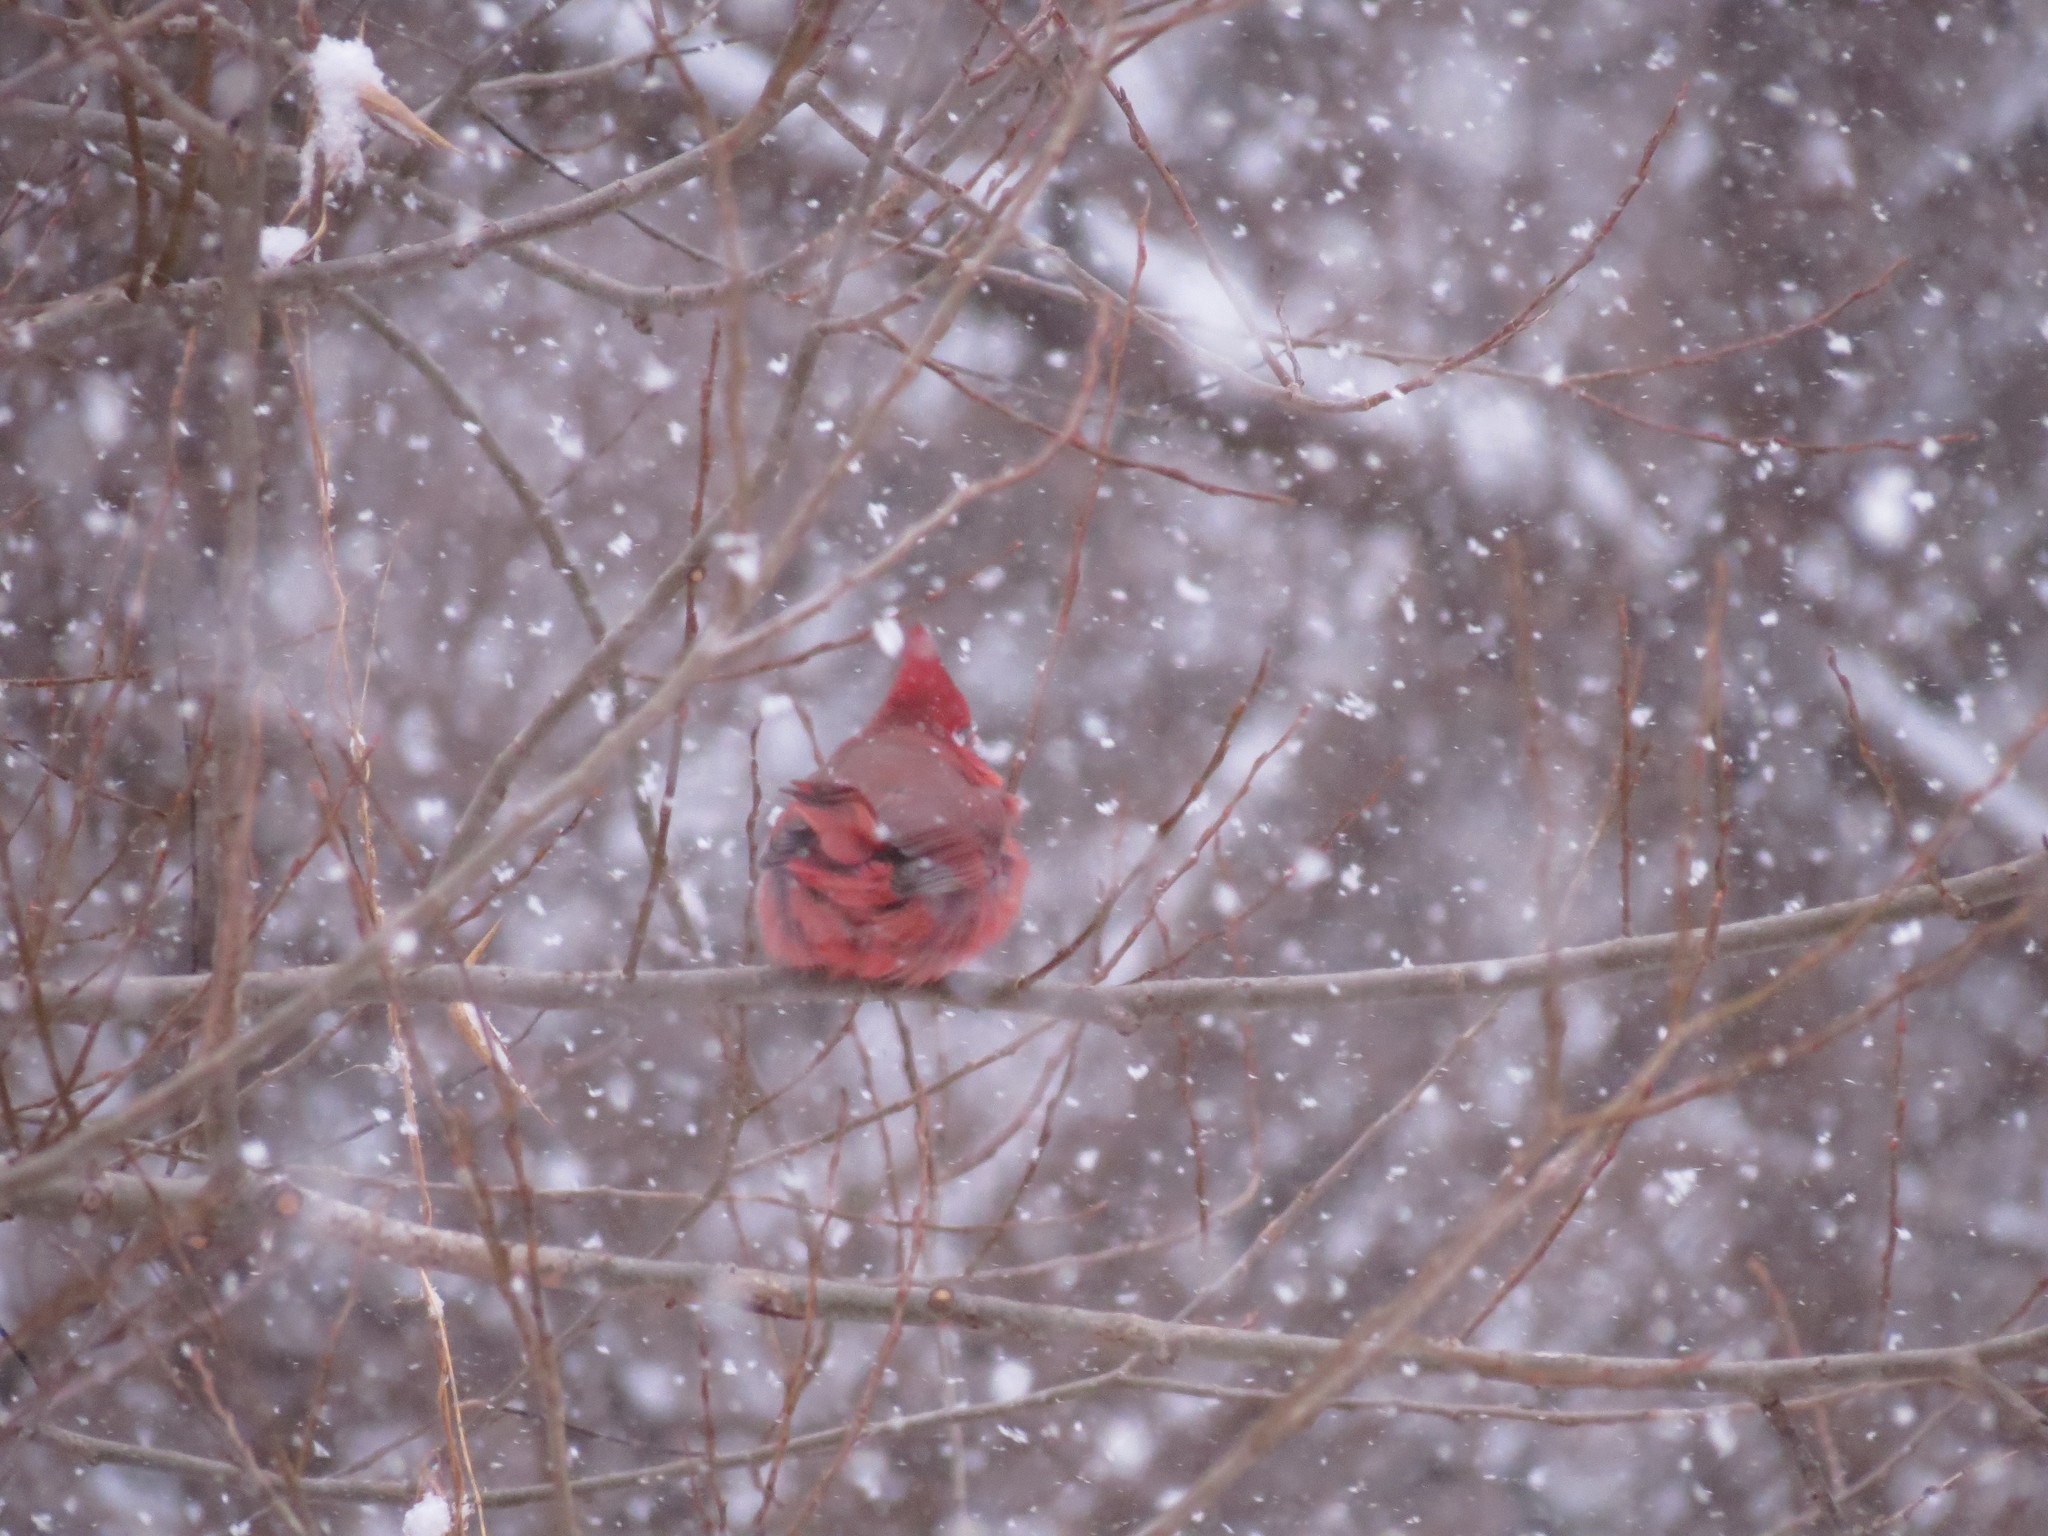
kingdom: Animalia
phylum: Chordata
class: Aves
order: Passeriformes
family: Cardinalidae
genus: Cardinalis
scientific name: Cardinalis cardinalis
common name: Northern cardinal
